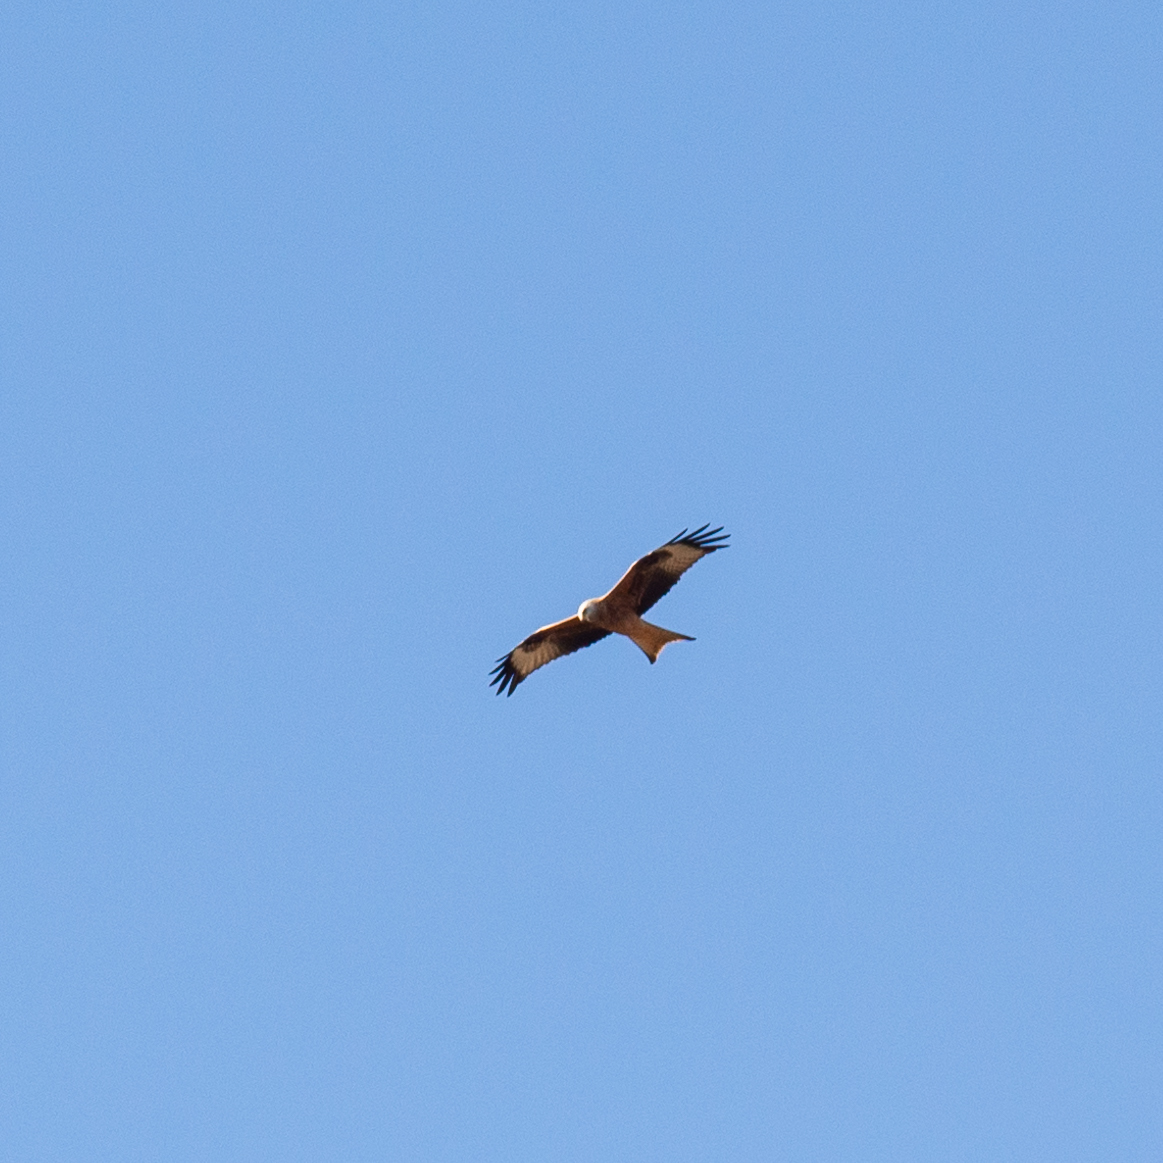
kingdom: Animalia
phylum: Chordata
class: Aves
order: Accipitriformes
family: Accipitridae
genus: Milvus
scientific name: Milvus milvus
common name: Red kite
